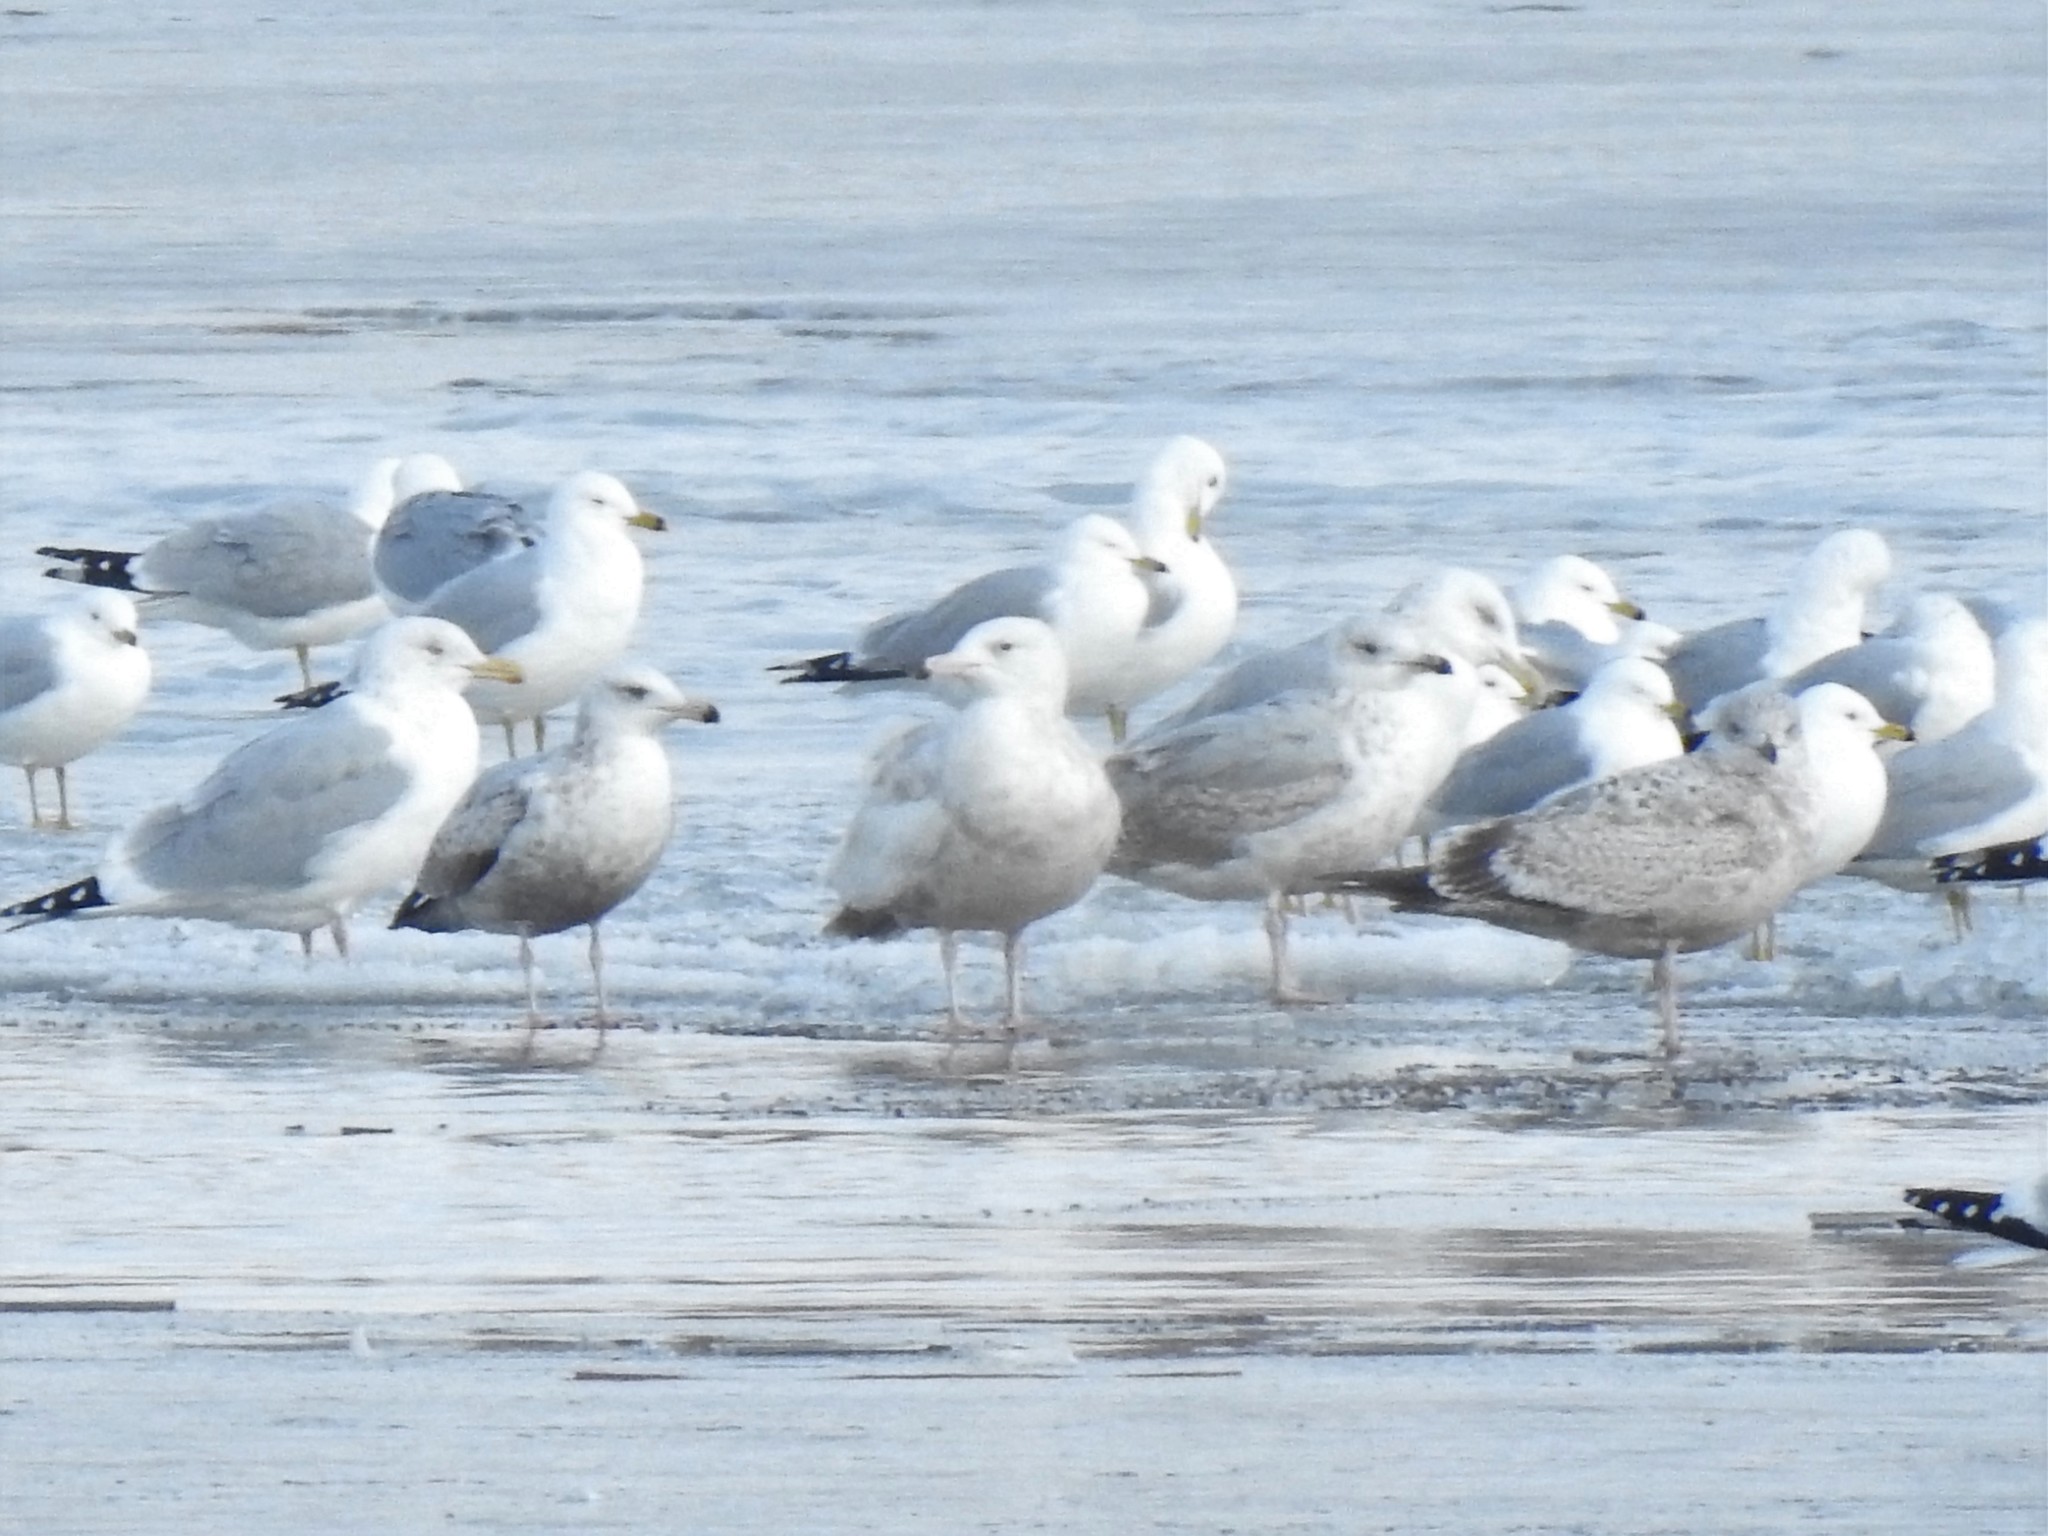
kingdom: Animalia
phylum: Chordata
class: Aves
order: Charadriiformes
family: Laridae
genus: Larus
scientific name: Larus hyperboreus
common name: Glaucous gull
